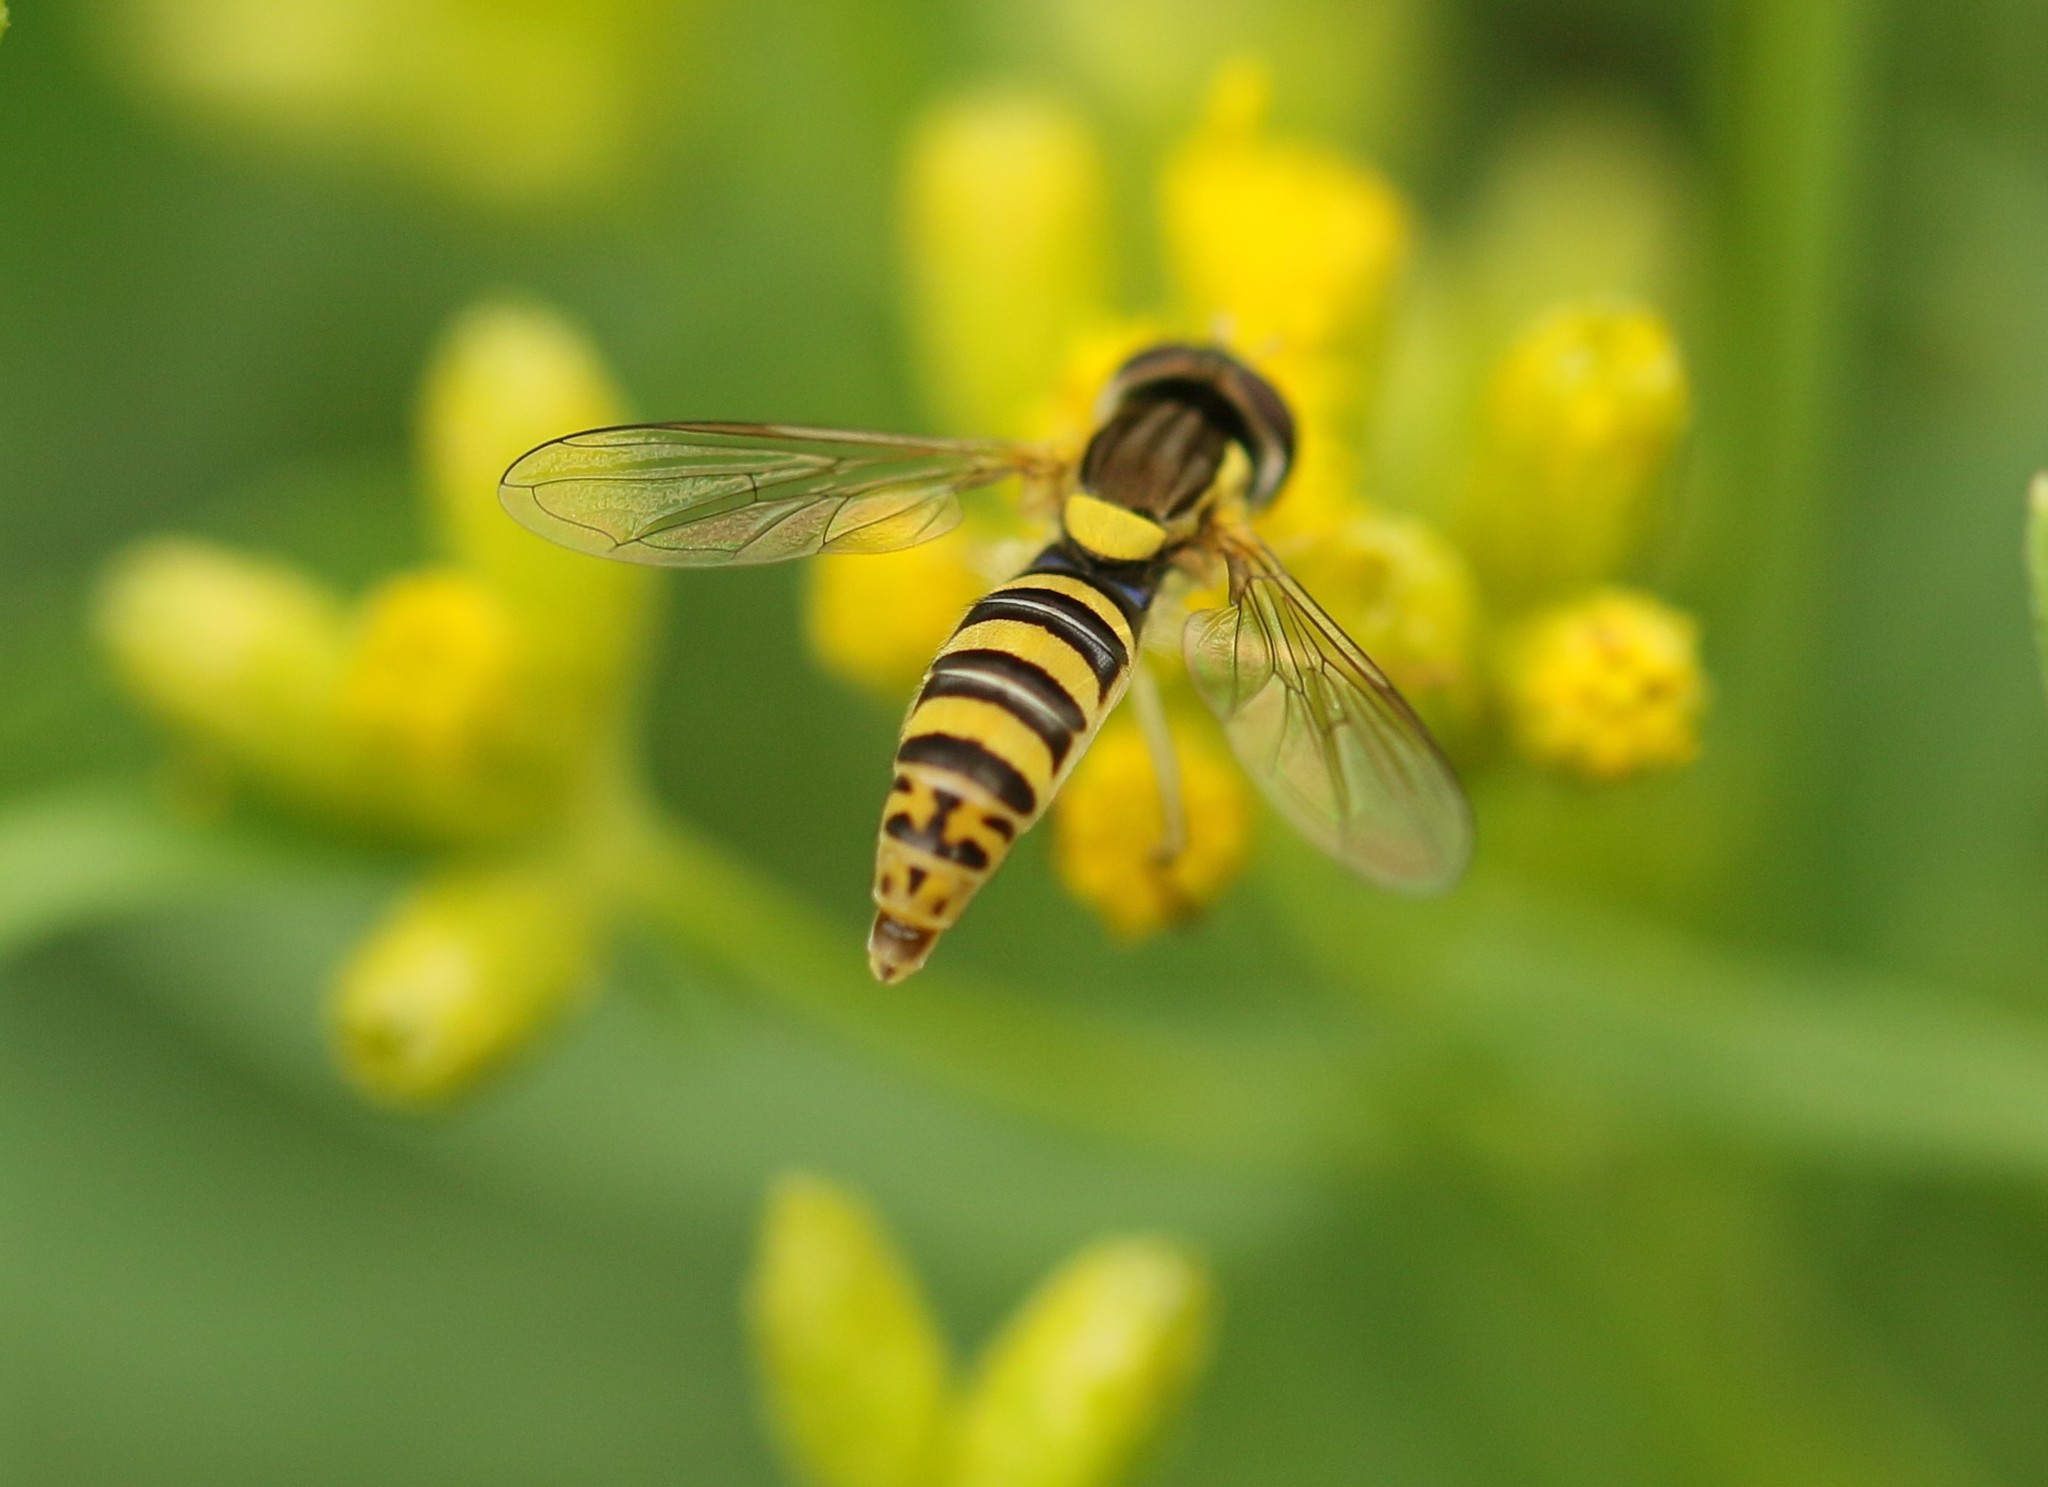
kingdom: Animalia
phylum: Arthropoda
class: Insecta
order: Diptera
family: Syrphidae
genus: Sphaerophoria
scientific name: Sphaerophoria
